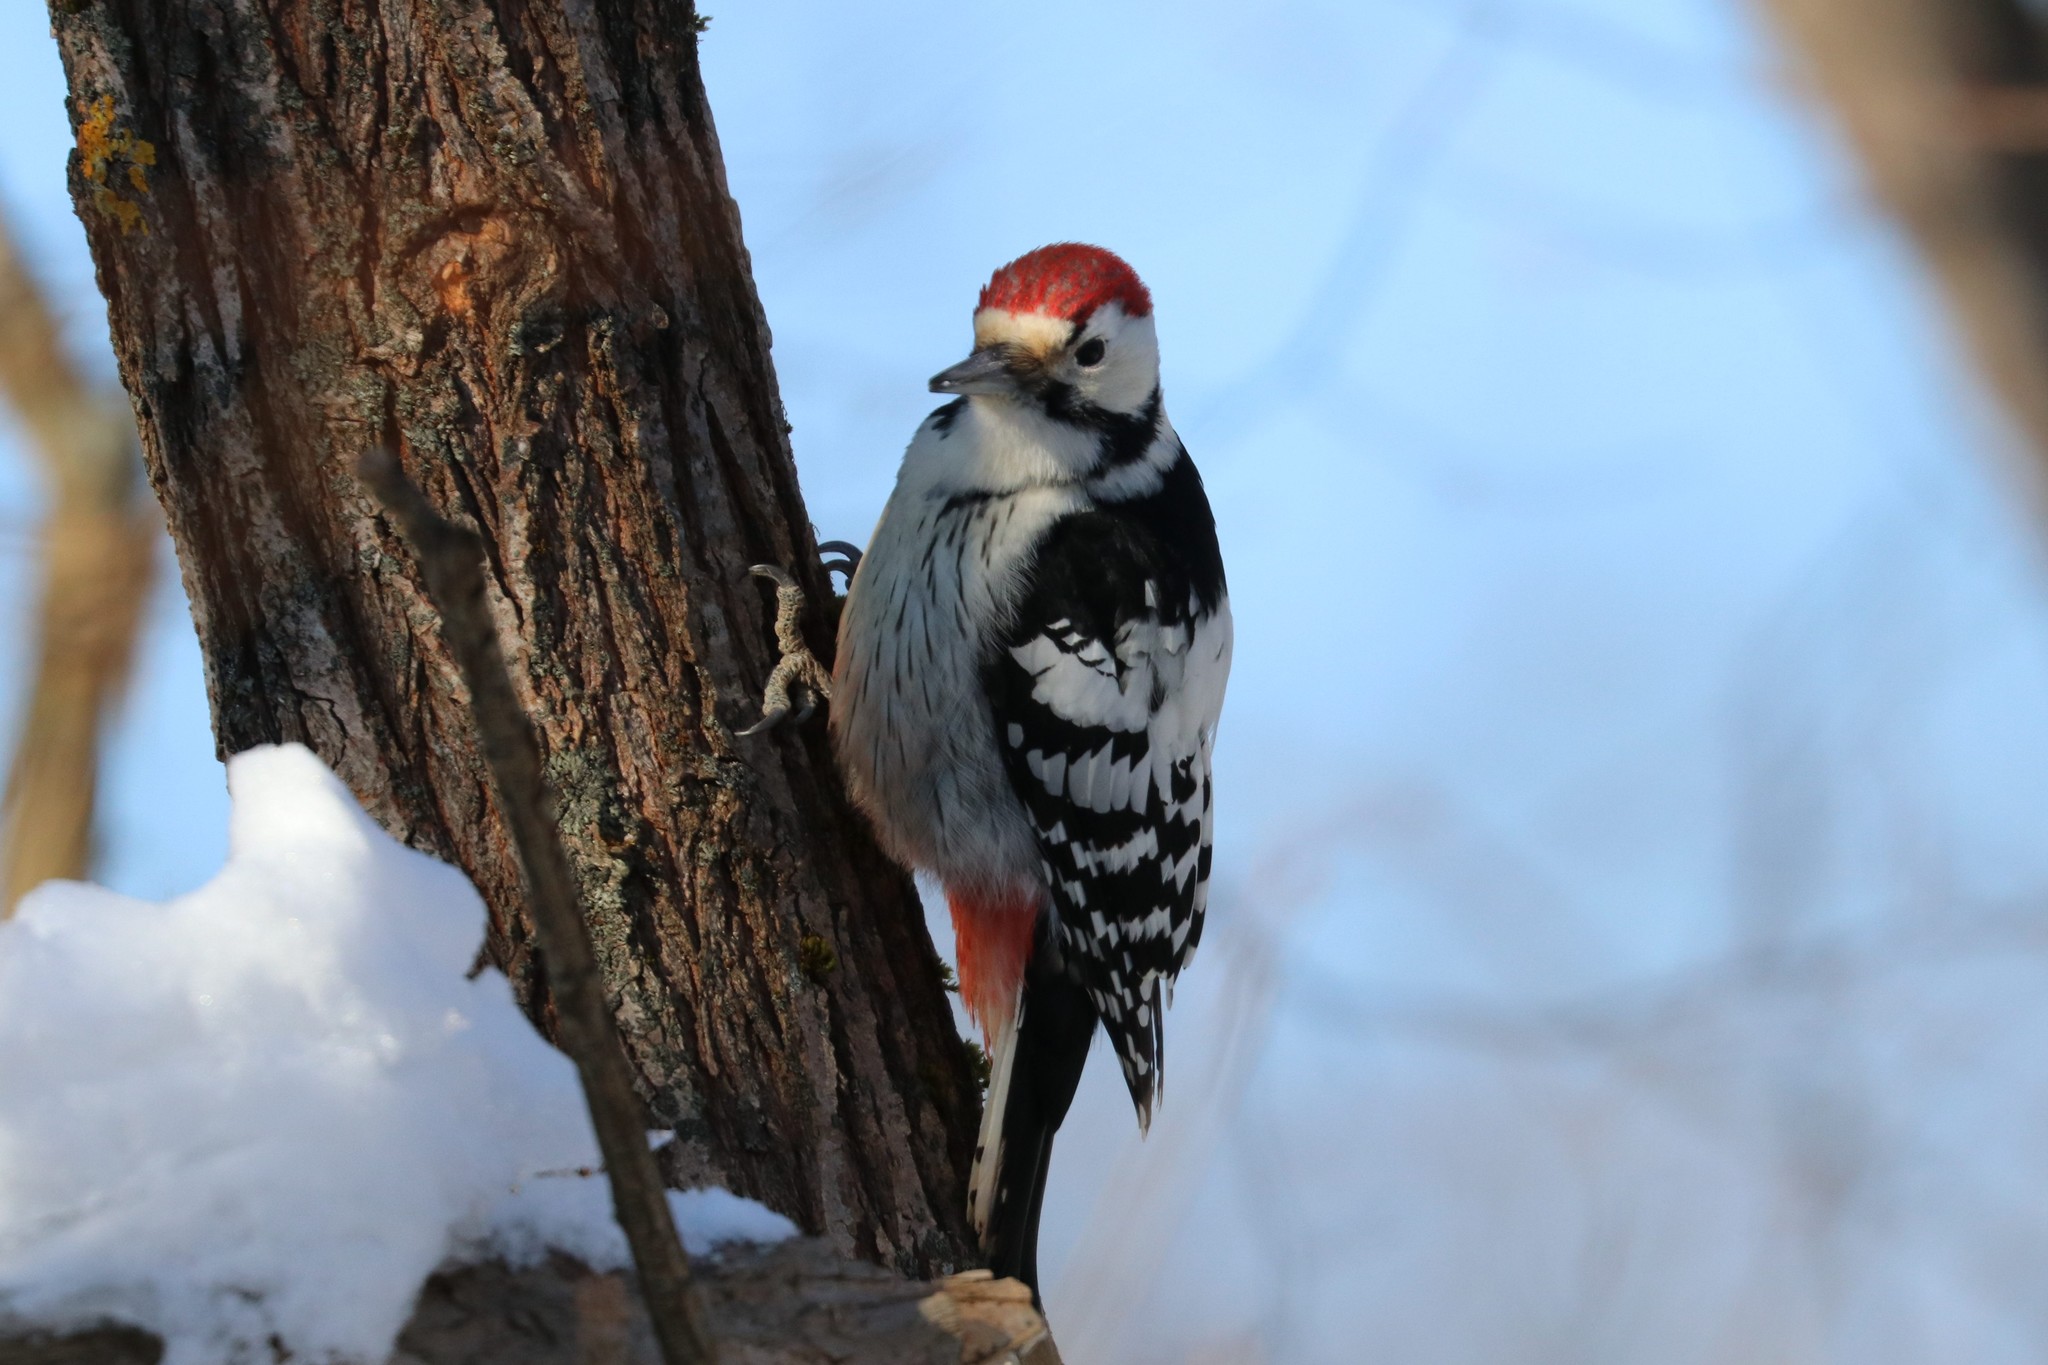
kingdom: Animalia
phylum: Chordata
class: Aves
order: Piciformes
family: Picidae
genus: Dendrocopos
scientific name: Dendrocopos leucotos
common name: White-backed woodpecker
